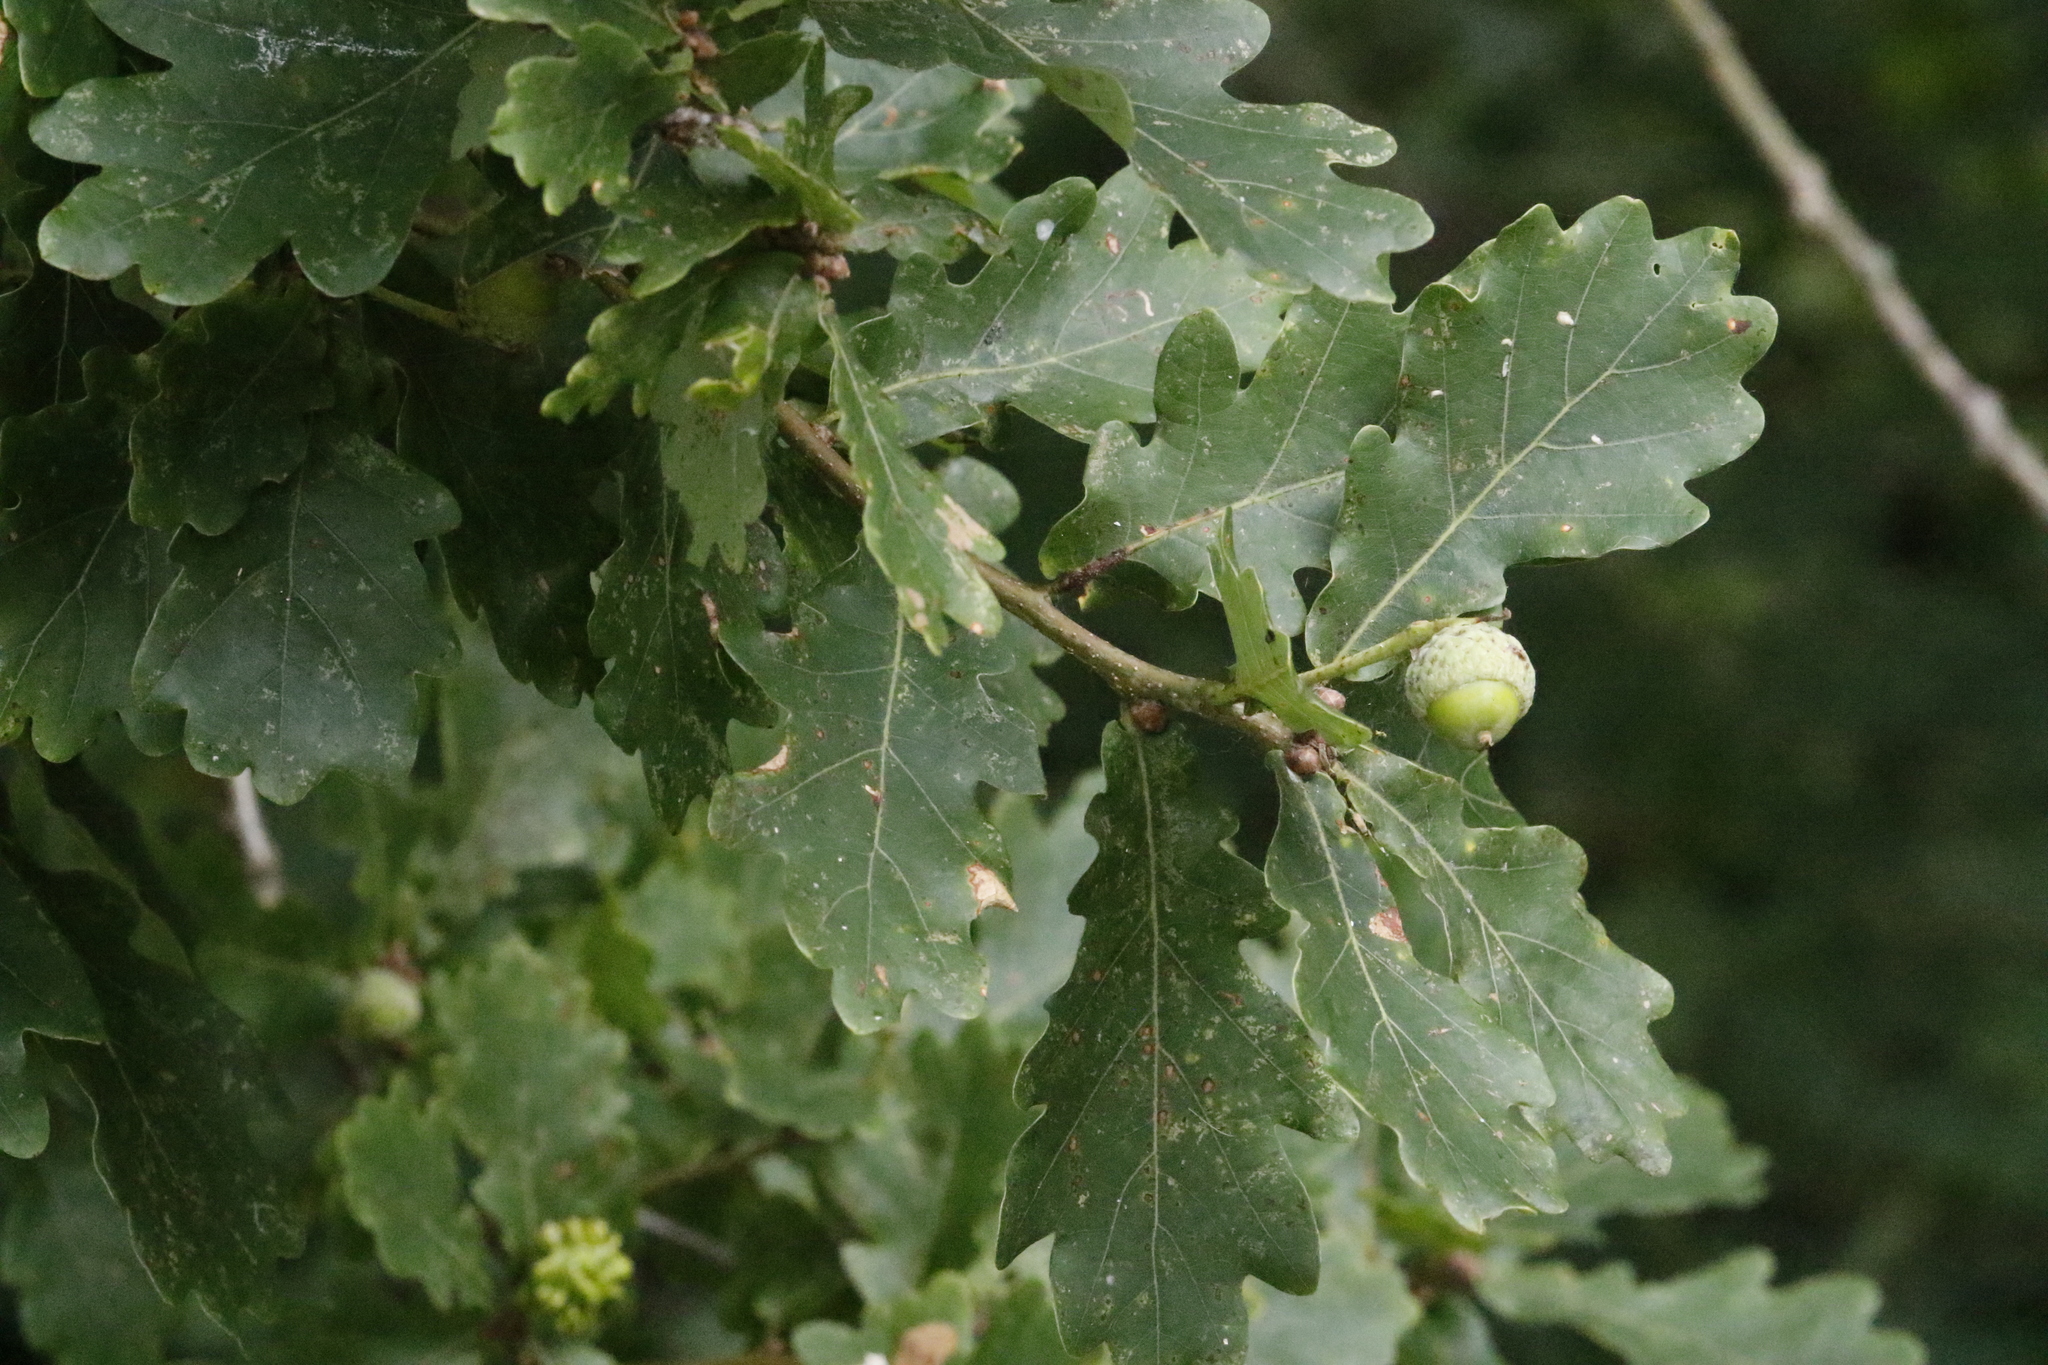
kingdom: Plantae
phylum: Tracheophyta
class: Magnoliopsida
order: Fagales
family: Fagaceae
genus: Quercus
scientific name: Quercus robur
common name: Pedunculate oak
